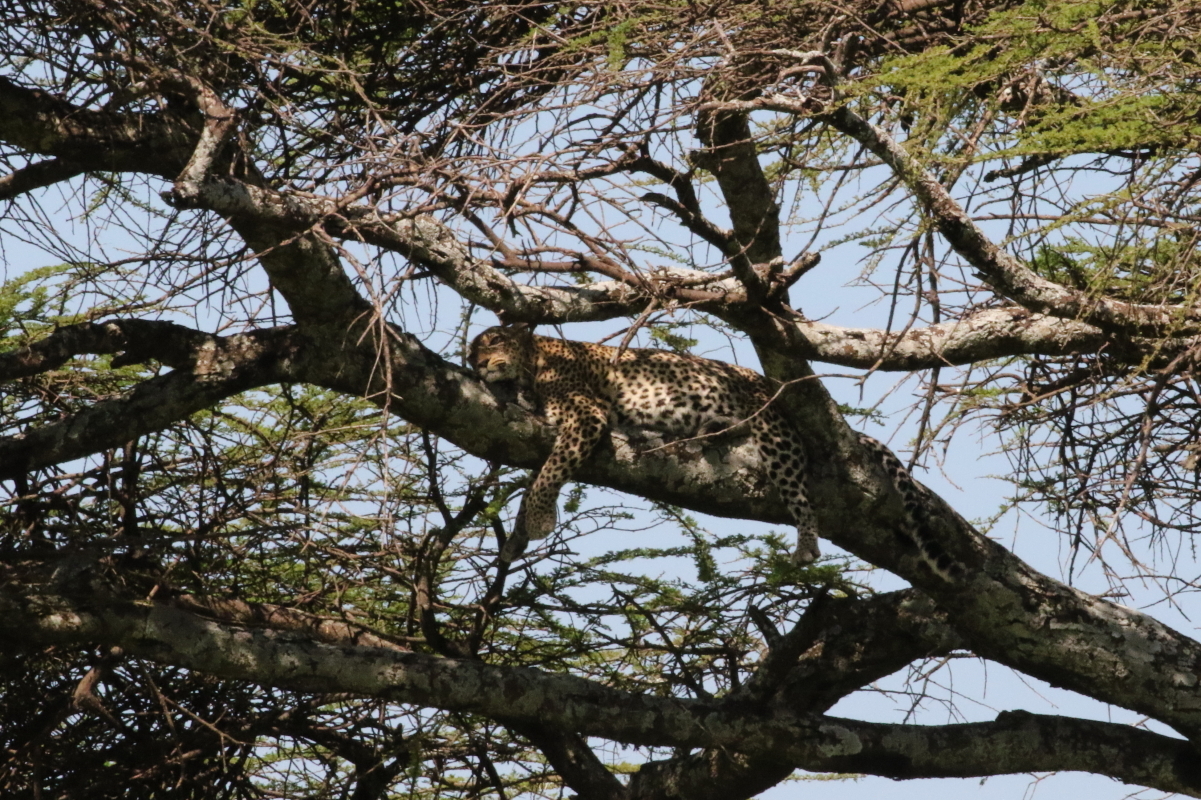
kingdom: Animalia
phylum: Chordata
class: Mammalia
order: Carnivora
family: Felidae
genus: Panthera
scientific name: Panthera pardus
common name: Leopard
